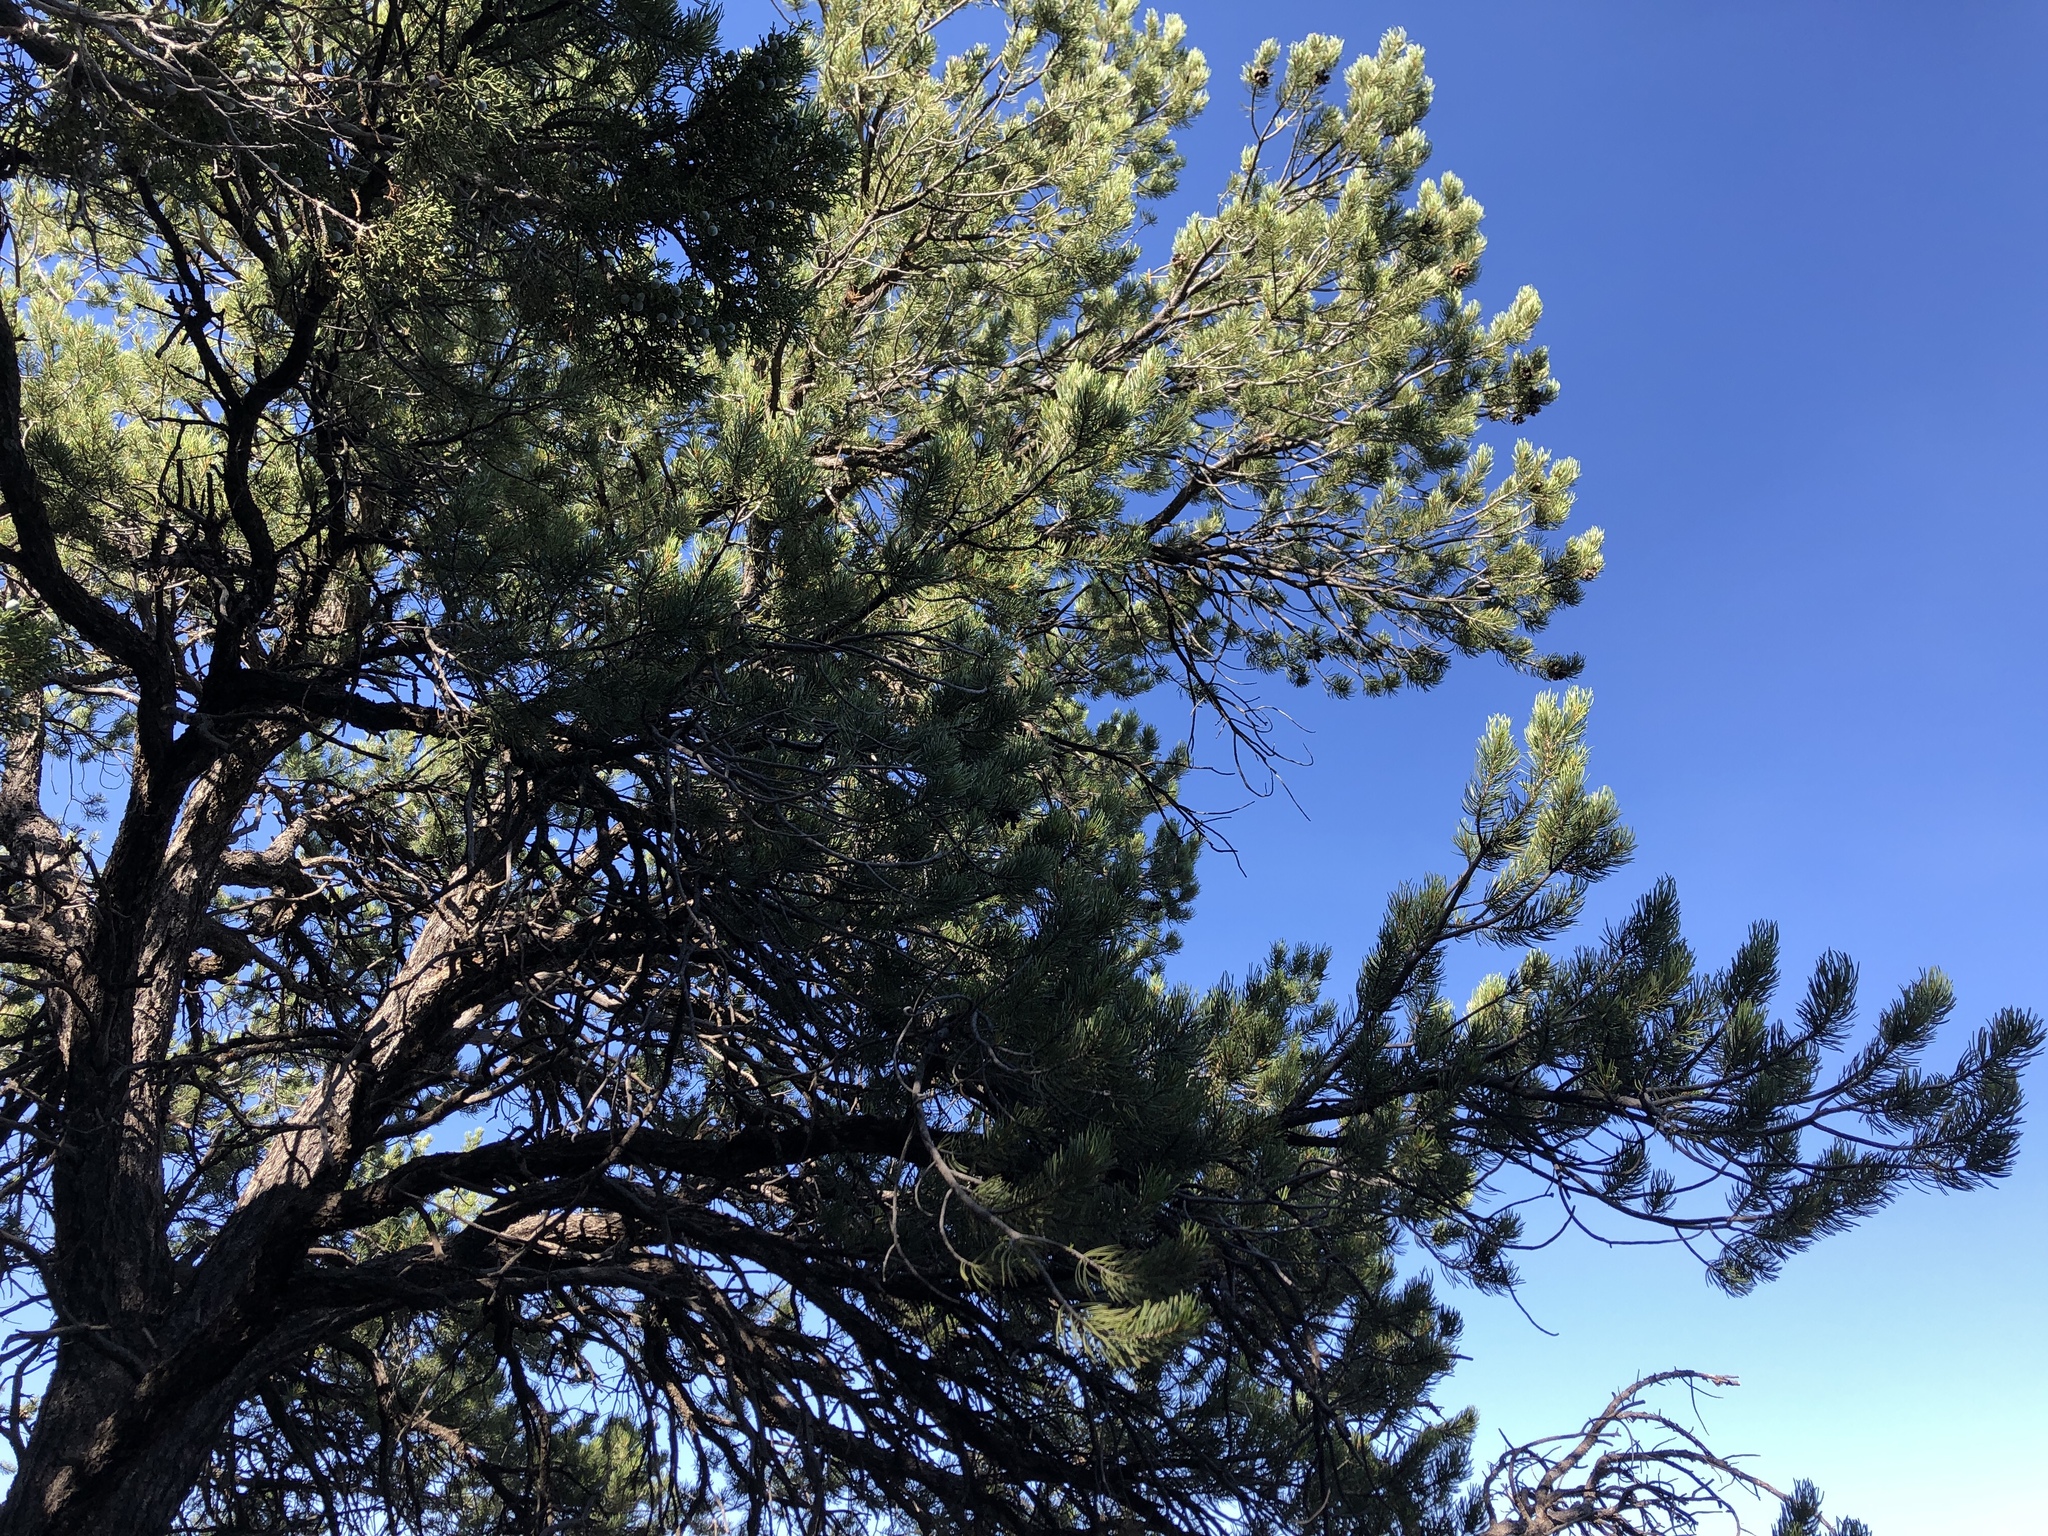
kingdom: Plantae
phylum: Tracheophyta
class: Pinopsida
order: Pinales
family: Pinaceae
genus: Pinus
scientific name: Pinus edulis
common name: Colorado pinyon
